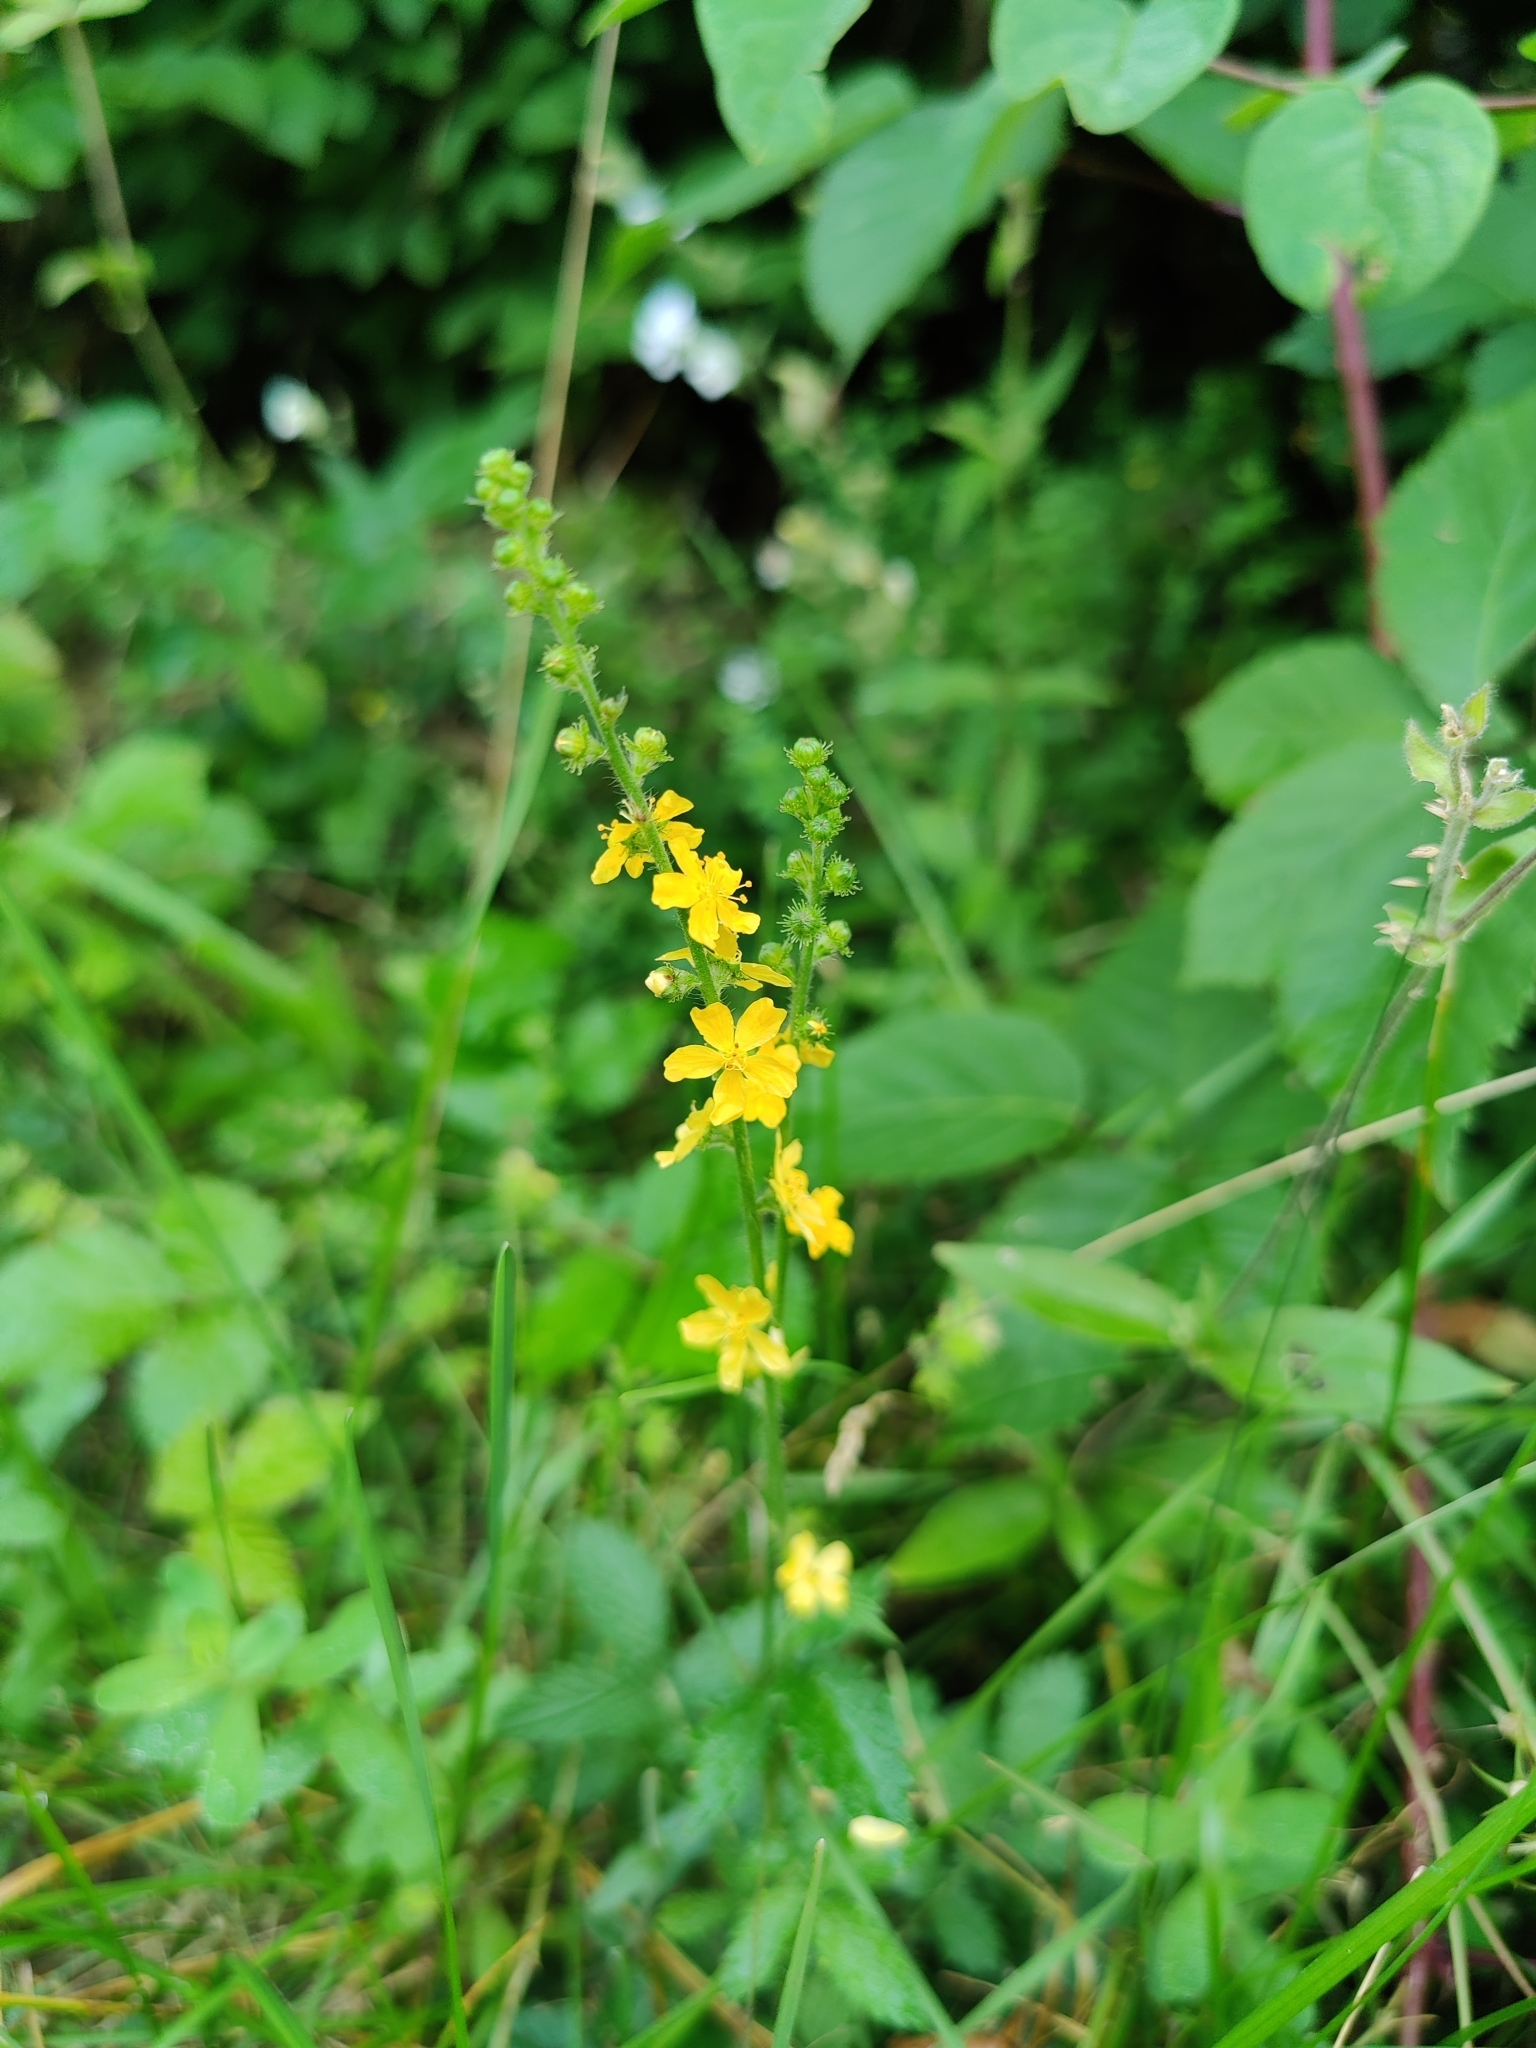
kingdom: Plantae
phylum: Tracheophyta
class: Magnoliopsida
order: Rosales
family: Rosaceae
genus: Agrimonia
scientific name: Agrimonia eupatoria
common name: Agrimony
